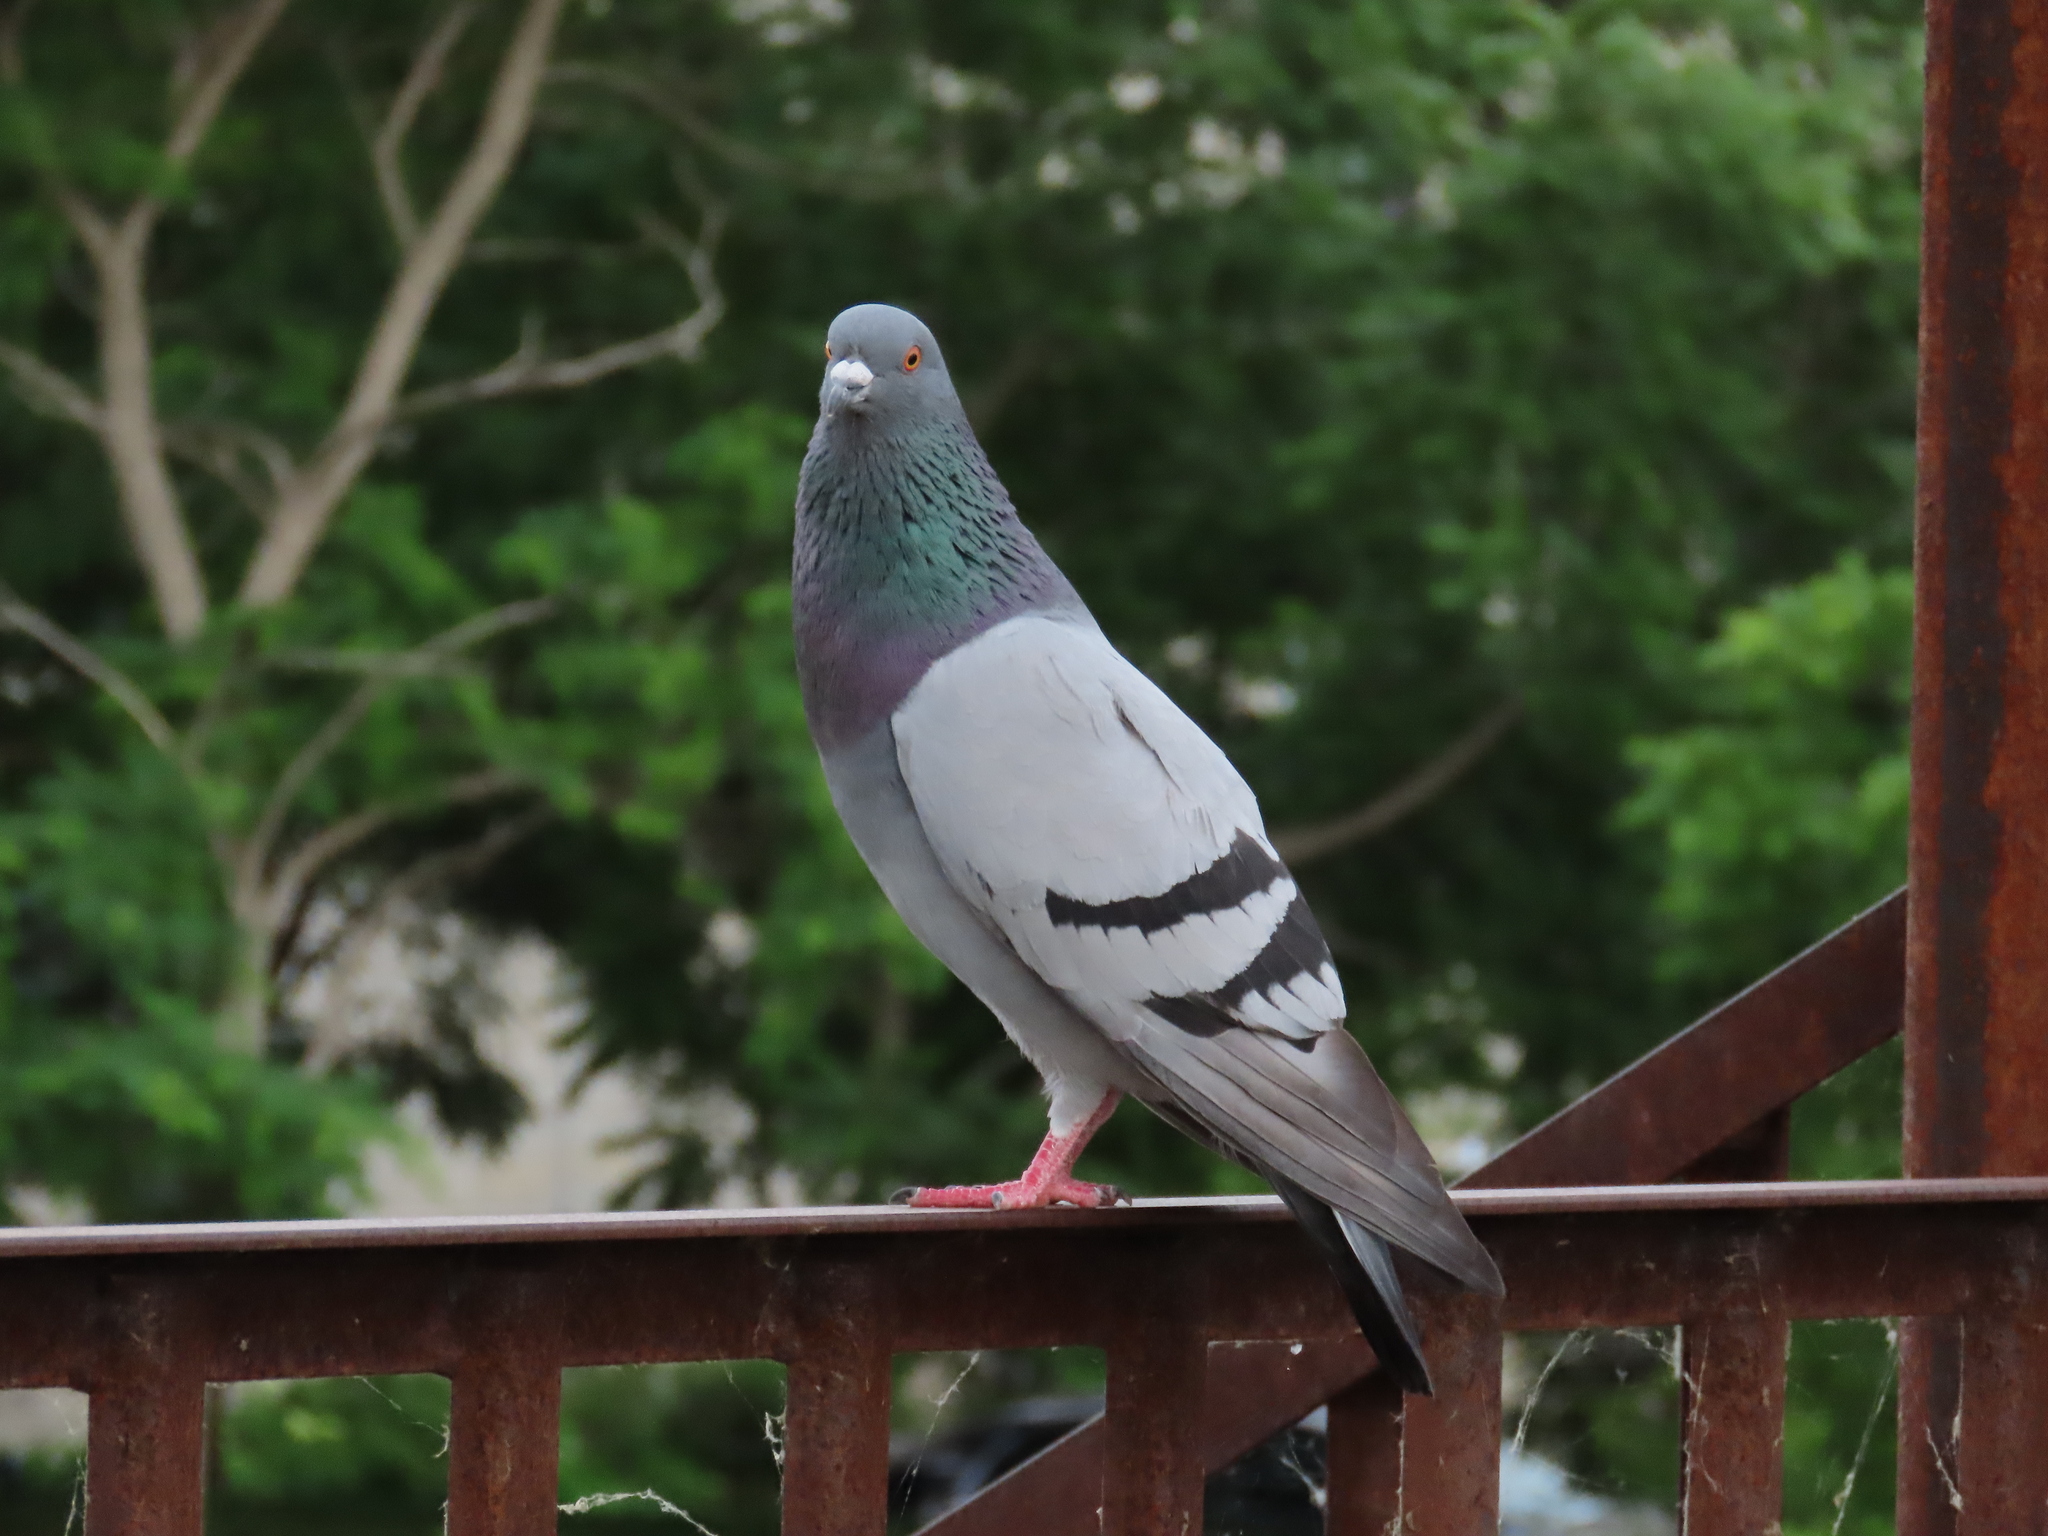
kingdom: Animalia
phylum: Chordata
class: Aves
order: Columbiformes
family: Columbidae
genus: Columba
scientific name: Columba livia
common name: Rock pigeon
